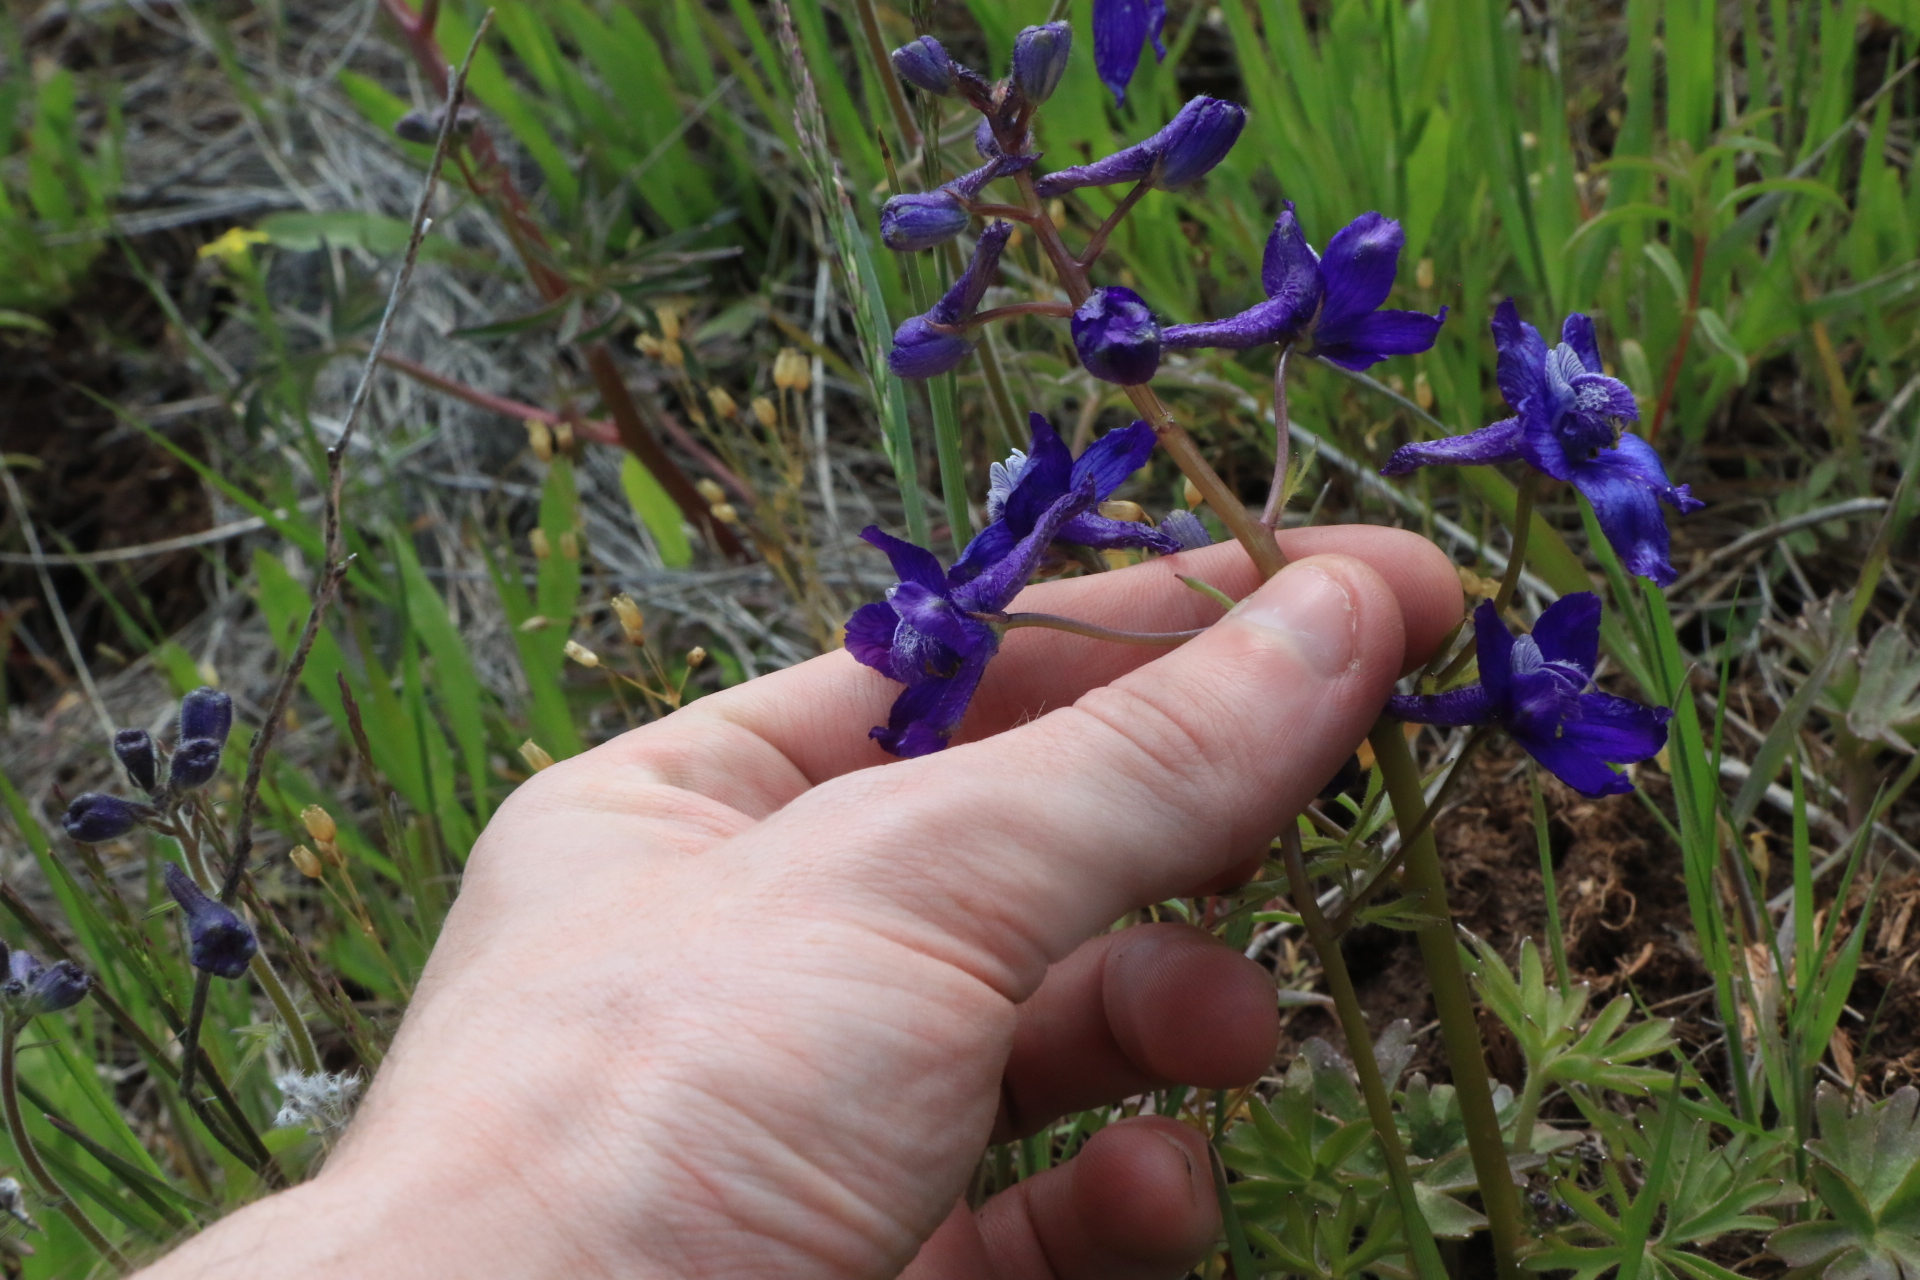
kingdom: Plantae
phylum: Tracheophyta
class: Magnoliopsida
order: Ranunculales
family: Ranunculaceae
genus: Delphinium
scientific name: Delphinium nuttallianum
